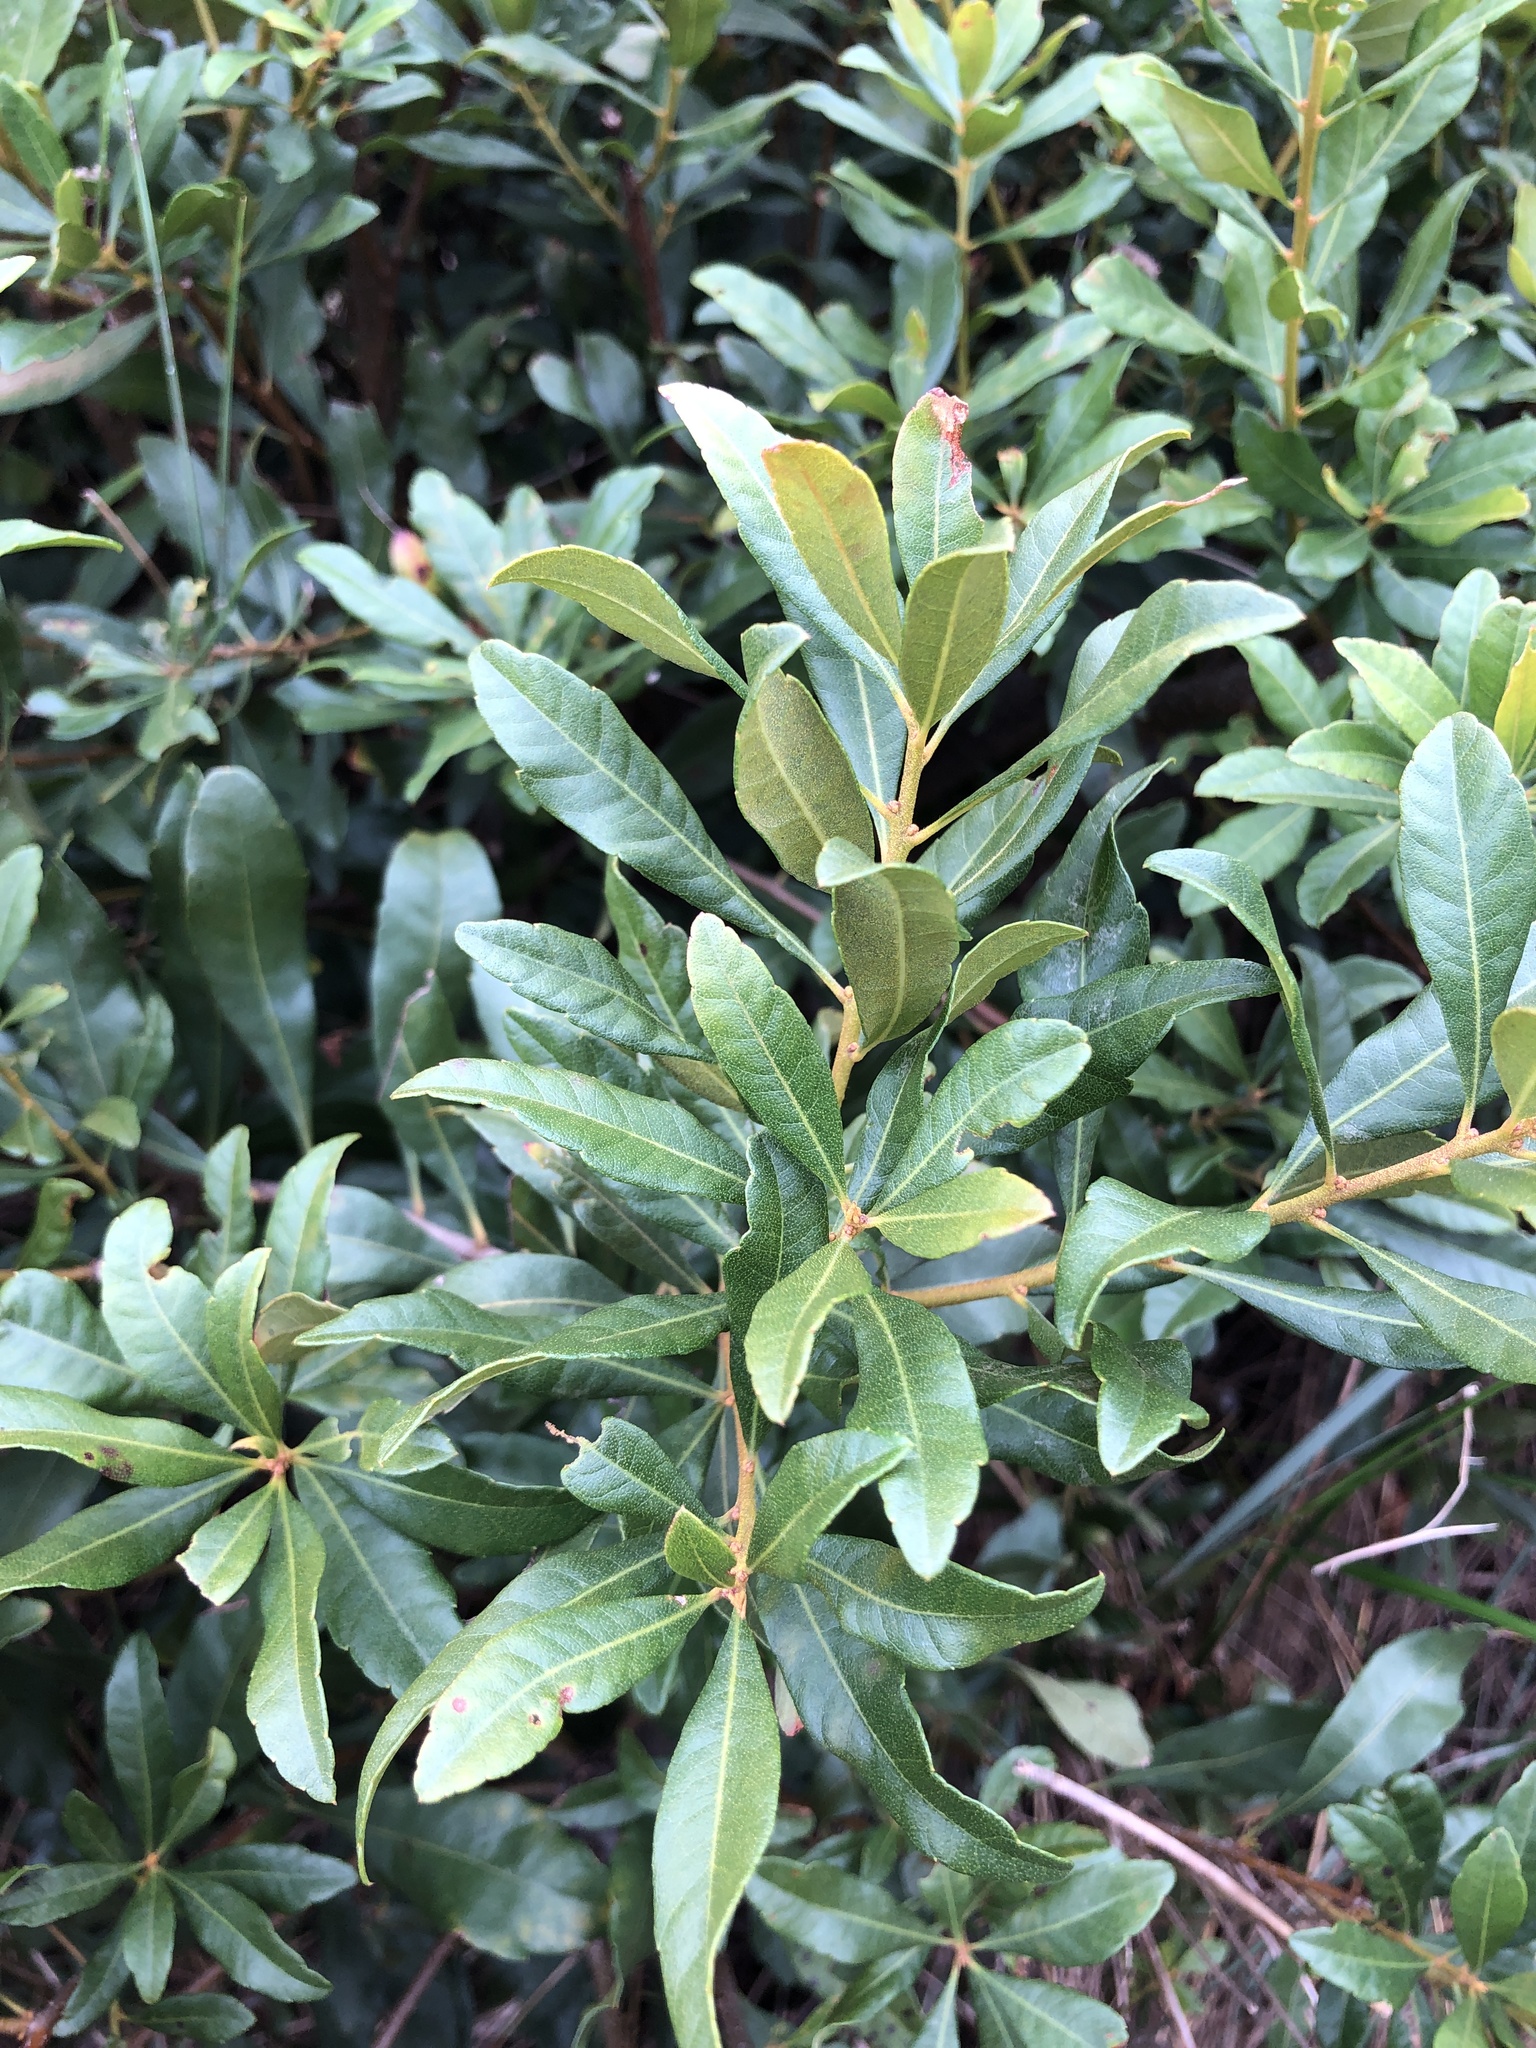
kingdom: Plantae
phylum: Tracheophyta
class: Magnoliopsida
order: Fagales
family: Myricaceae
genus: Morella
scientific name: Morella cerifera
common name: Wax myrtle
